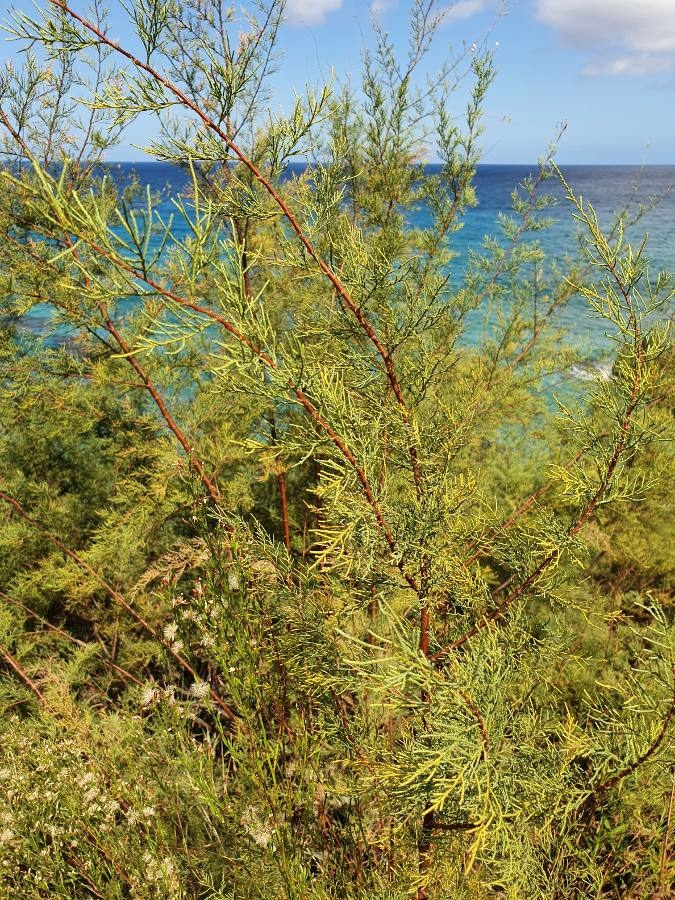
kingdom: Plantae
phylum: Tracheophyta
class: Magnoliopsida
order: Caryophyllales
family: Tamaricaceae
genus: Tamarix
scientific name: Tamarix africana
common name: African tamarisk
